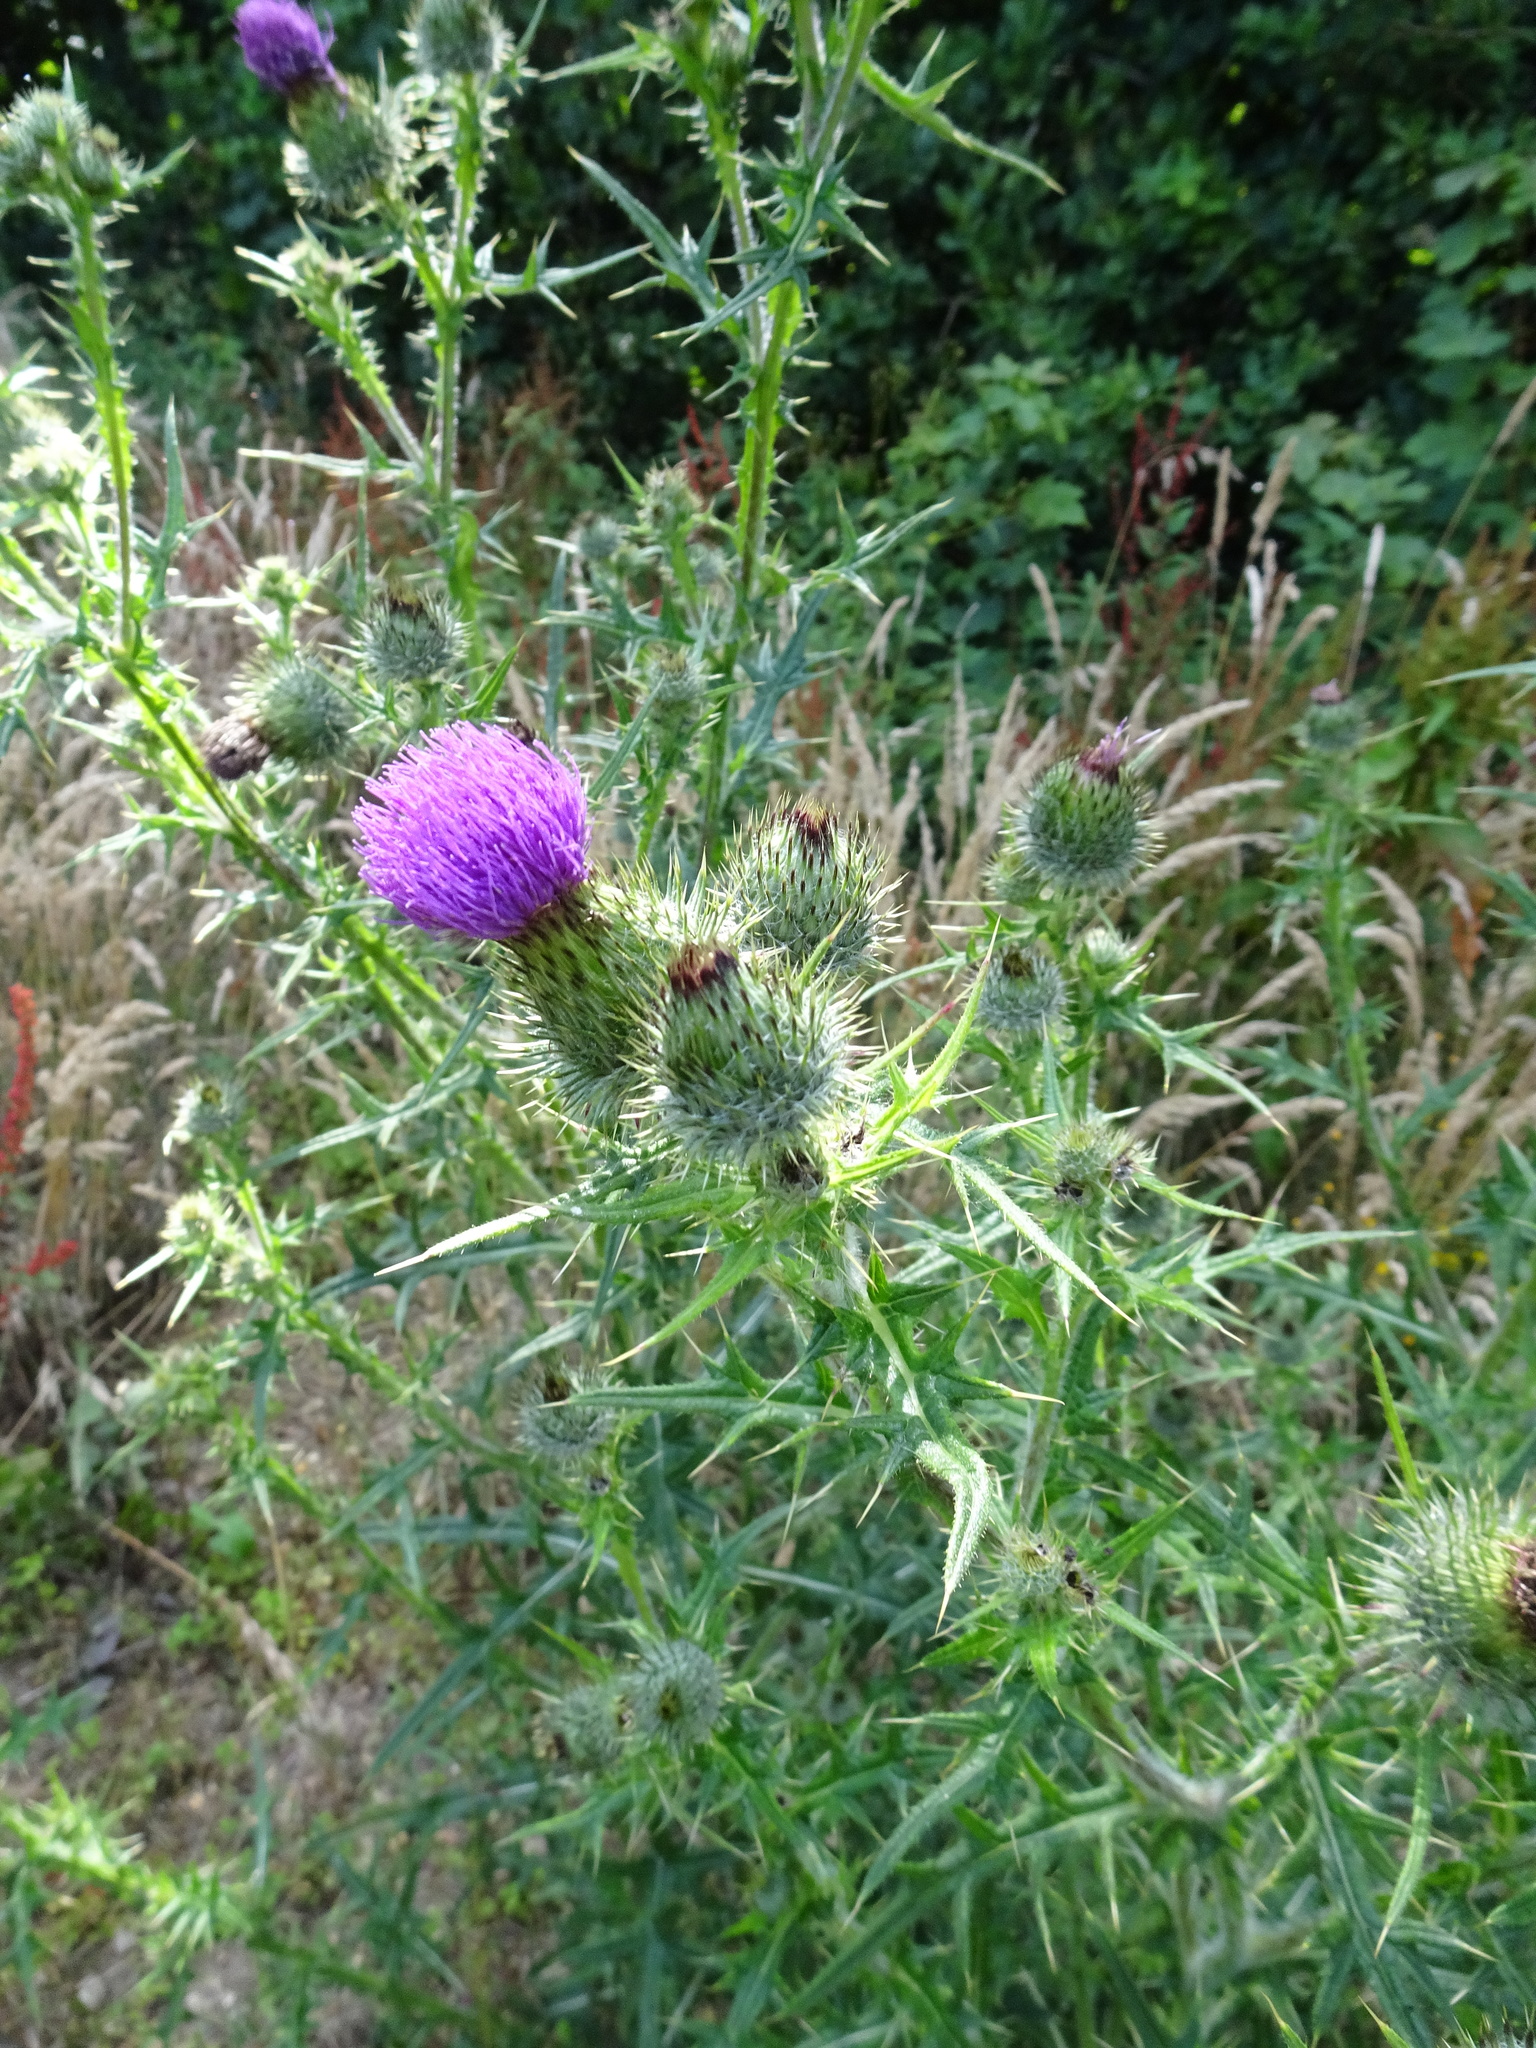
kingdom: Plantae
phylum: Tracheophyta
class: Magnoliopsida
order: Asterales
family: Asteraceae
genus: Cirsium
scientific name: Cirsium vulgare
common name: Bull thistle
